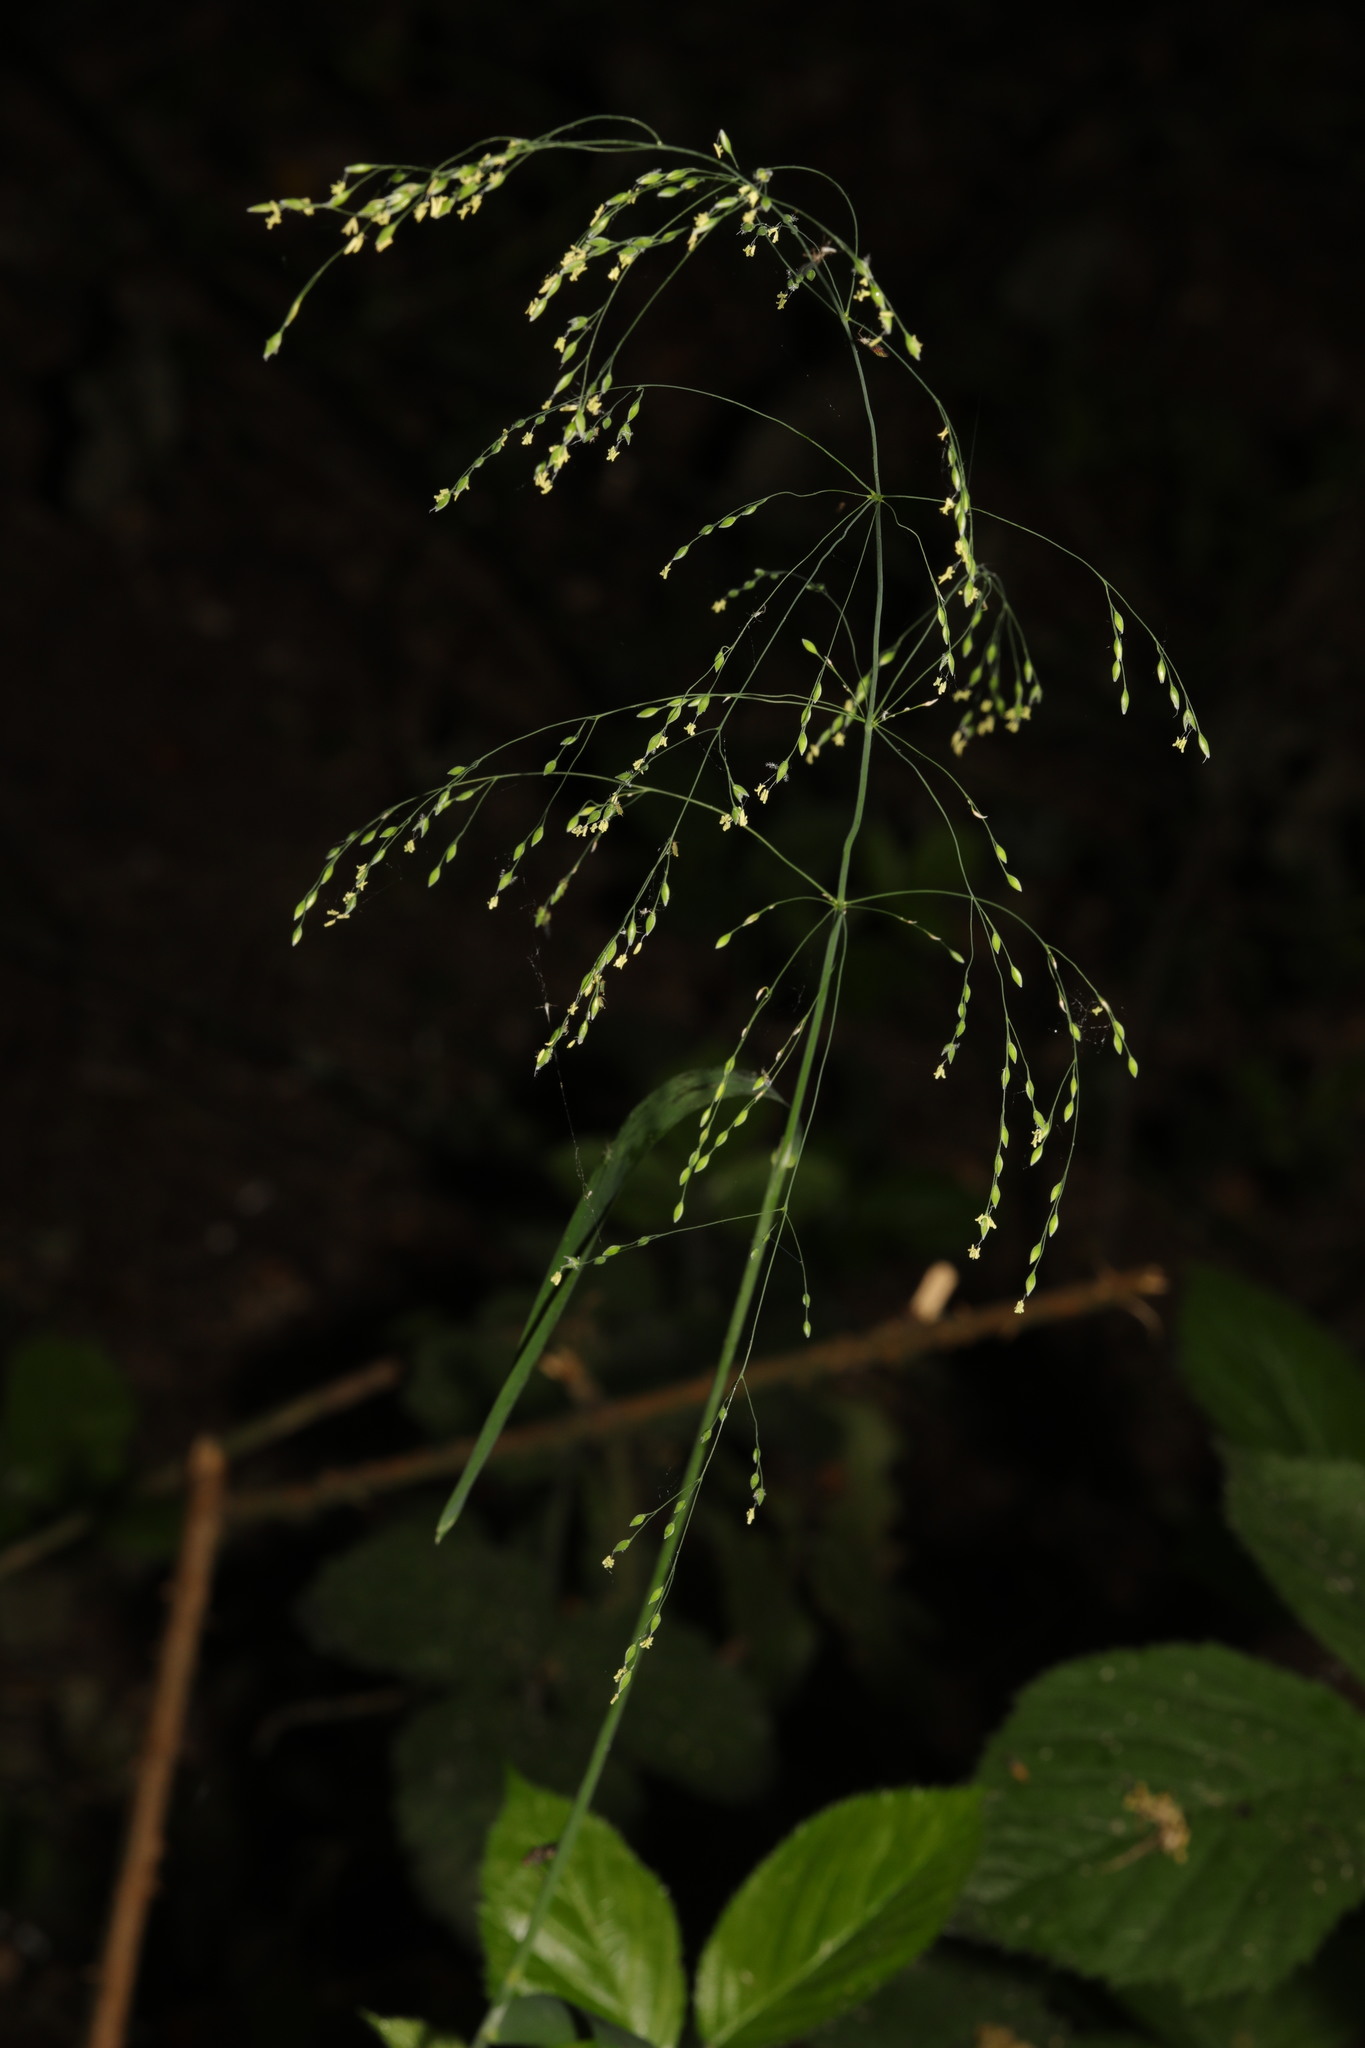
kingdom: Plantae
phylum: Tracheophyta
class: Liliopsida
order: Poales
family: Poaceae
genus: Milium
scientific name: Milium effusum
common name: Wood millet
